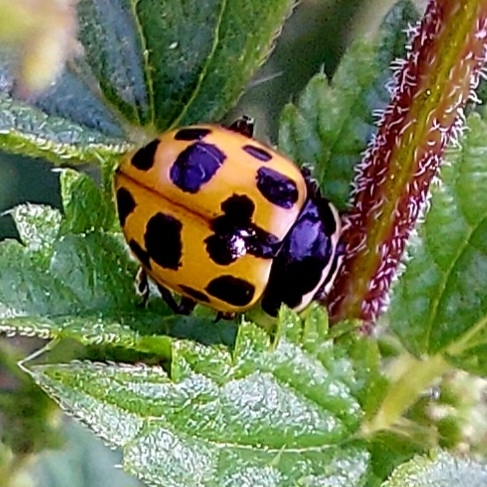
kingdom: Animalia
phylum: Arthropoda
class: Insecta
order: Coleoptera
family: Coccinellidae
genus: Ceratomegilla
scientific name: Ceratomegilla notata
